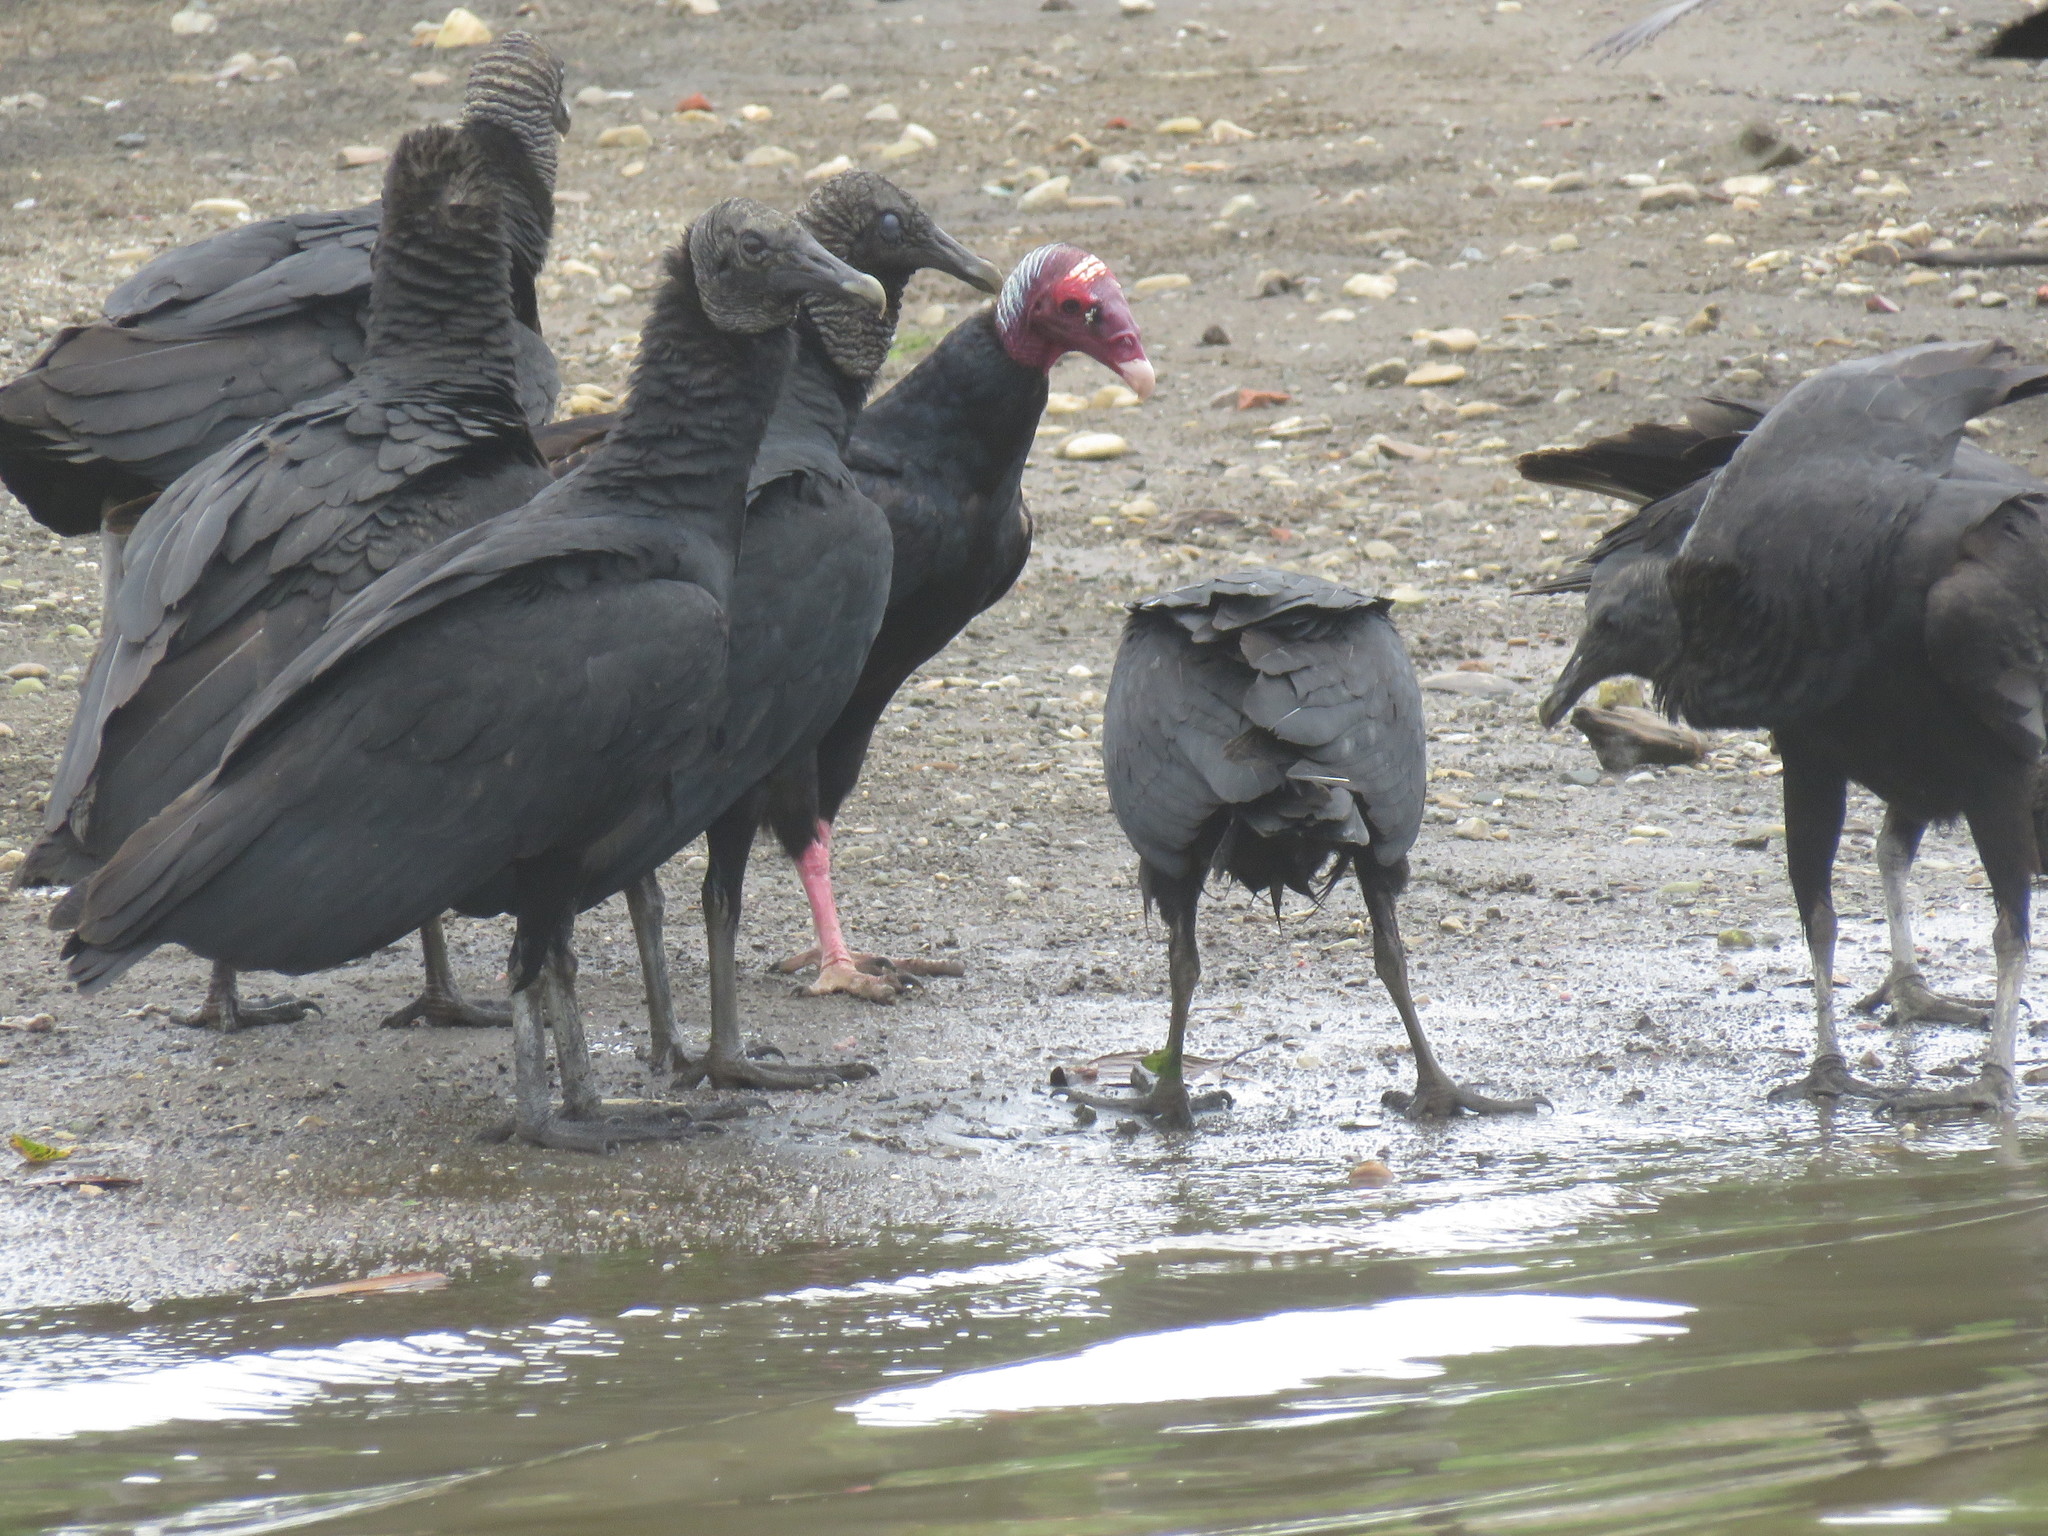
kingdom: Animalia
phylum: Chordata
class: Aves
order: Accipitriformes
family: Cathartidae
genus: Cathartes
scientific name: Cathartes aura
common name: Turkey vulture
